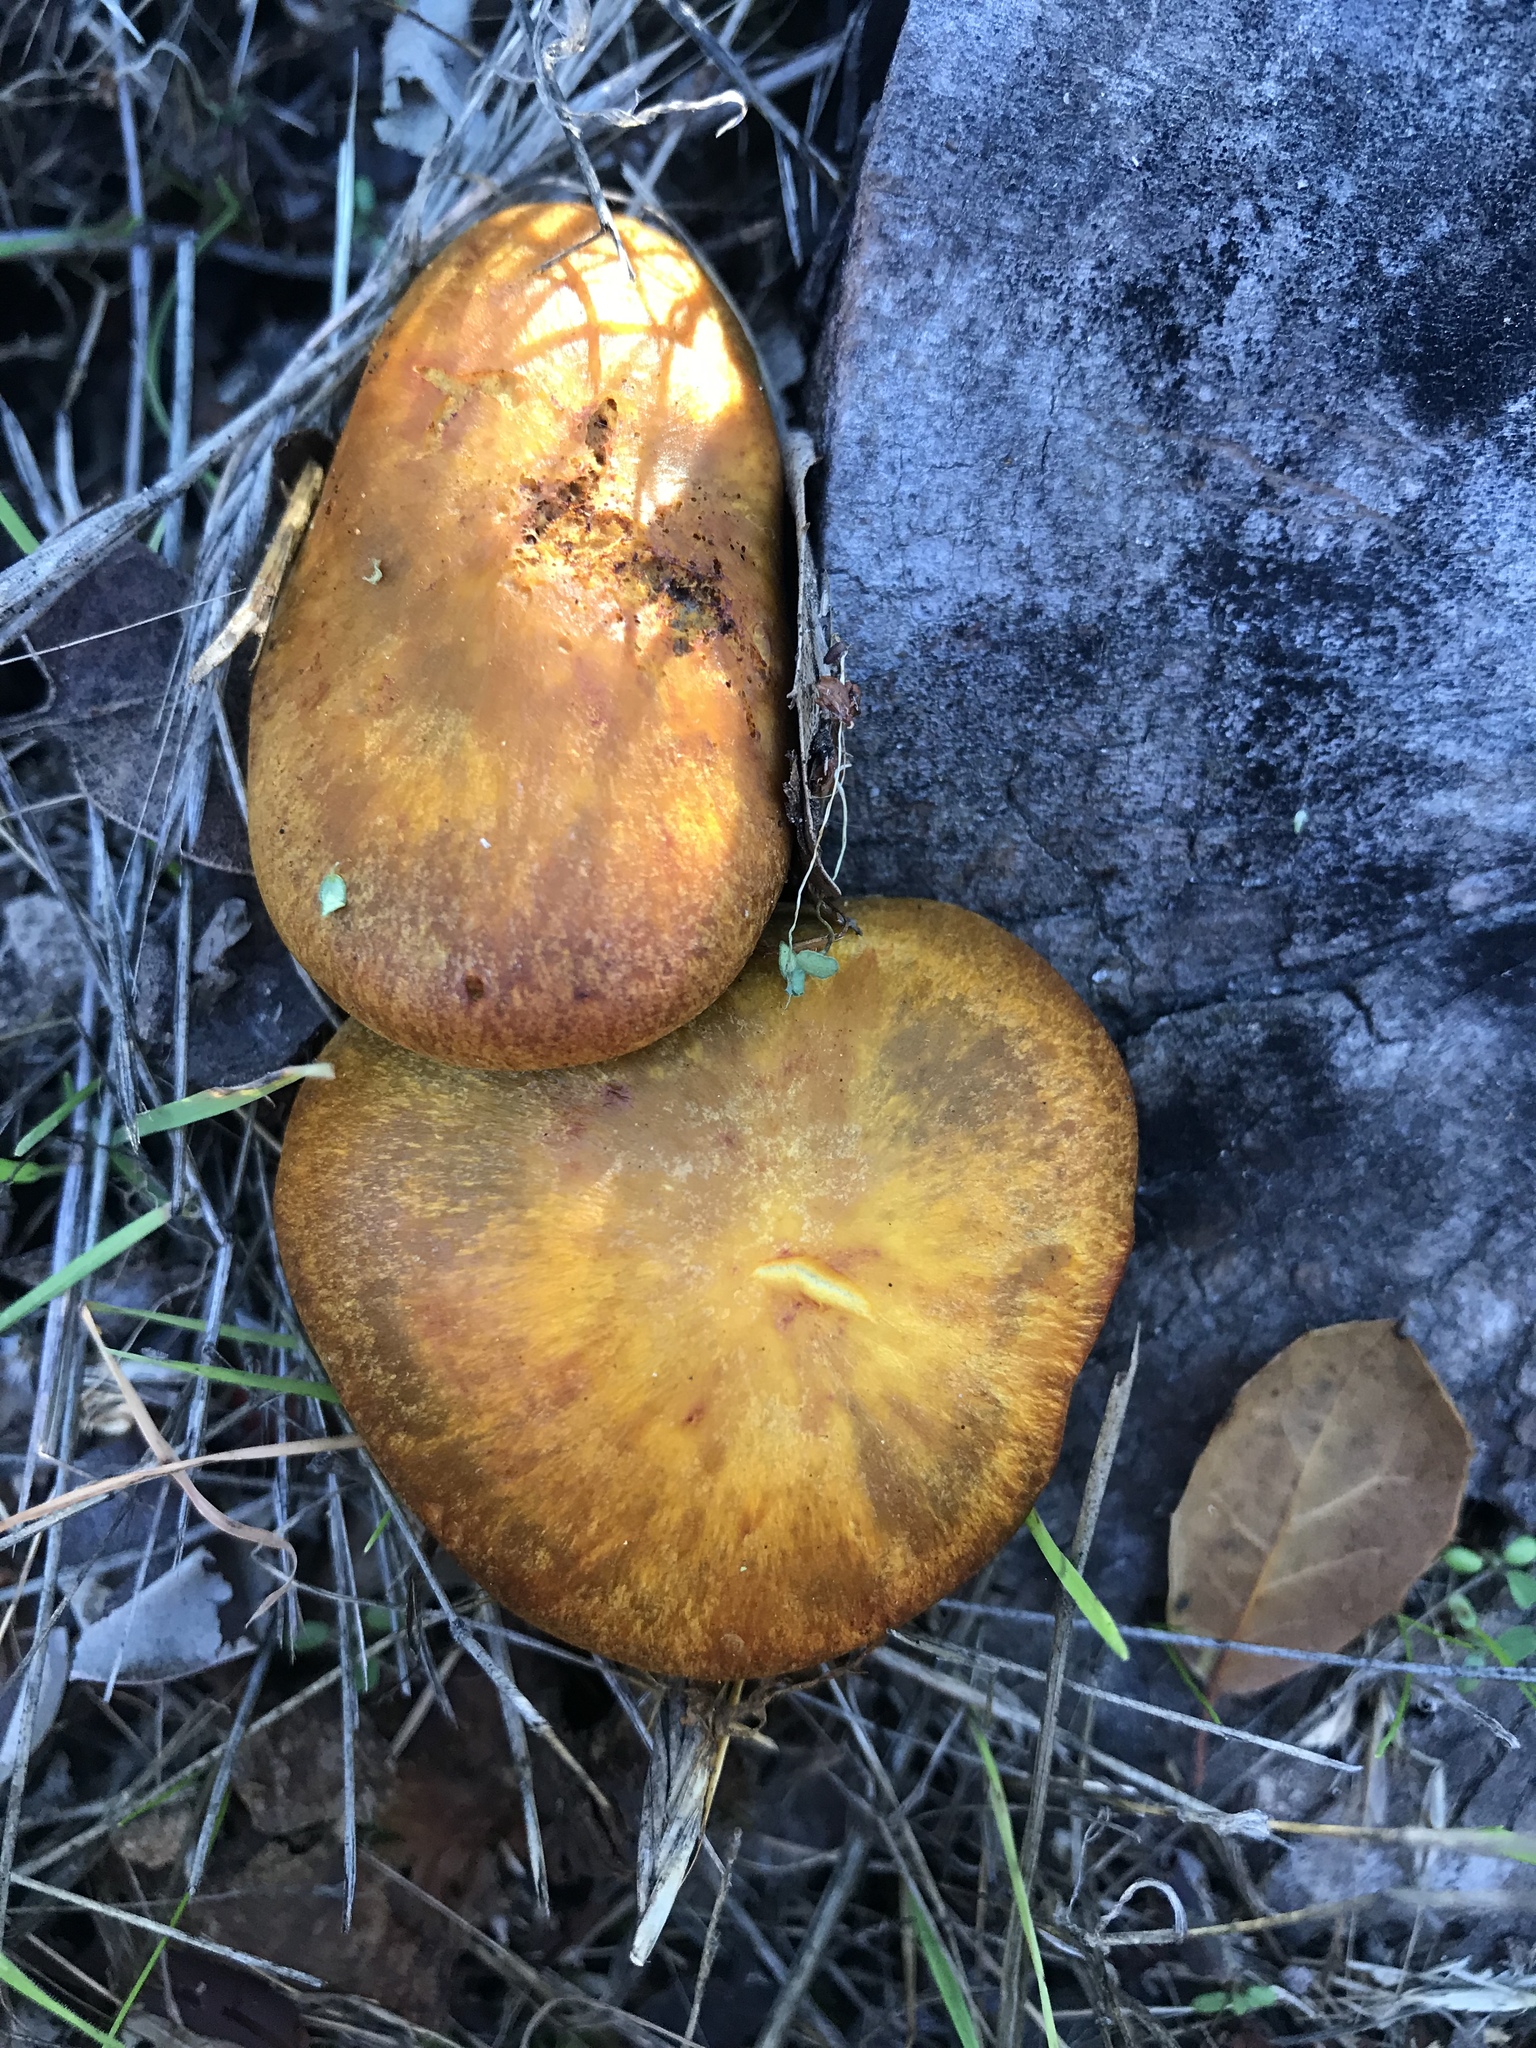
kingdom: Fungi
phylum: Basidiomycota
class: Agaricomycetes
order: Agaricales
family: Omphalotaceae
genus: Omphalotus
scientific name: Omphalotus olivascens
